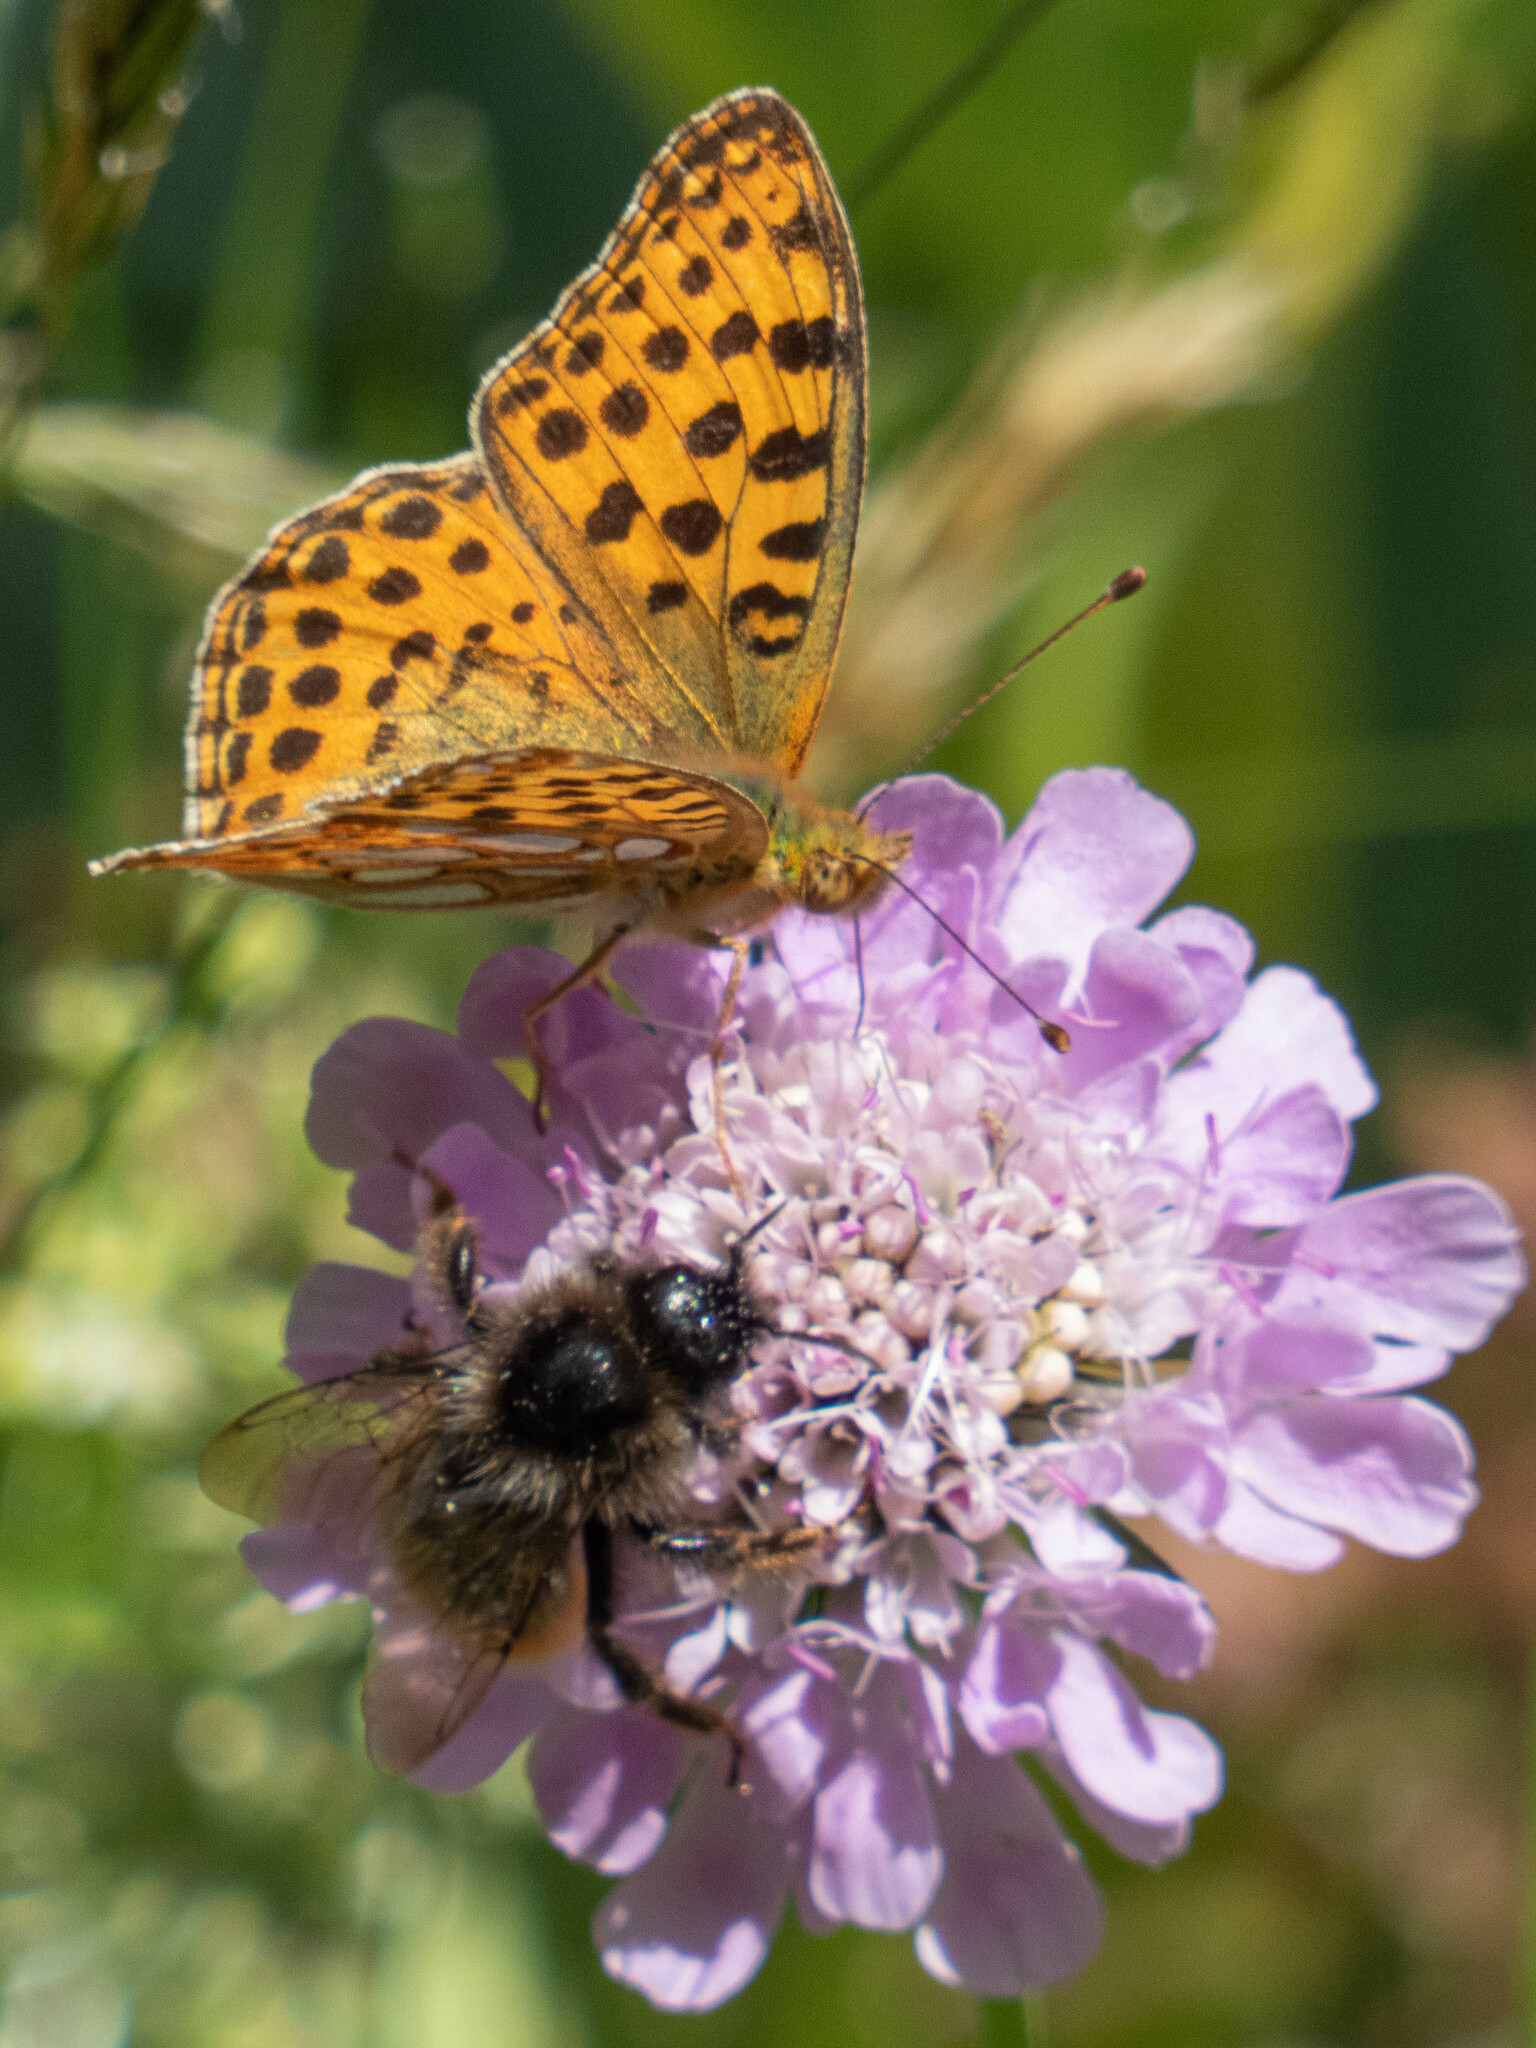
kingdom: Animalia
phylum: Arthropoda
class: Insecta
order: Lepidoptera
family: Nymphalidae
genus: Issoria
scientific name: Issoria lathonia
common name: Queen of spain fritillary
